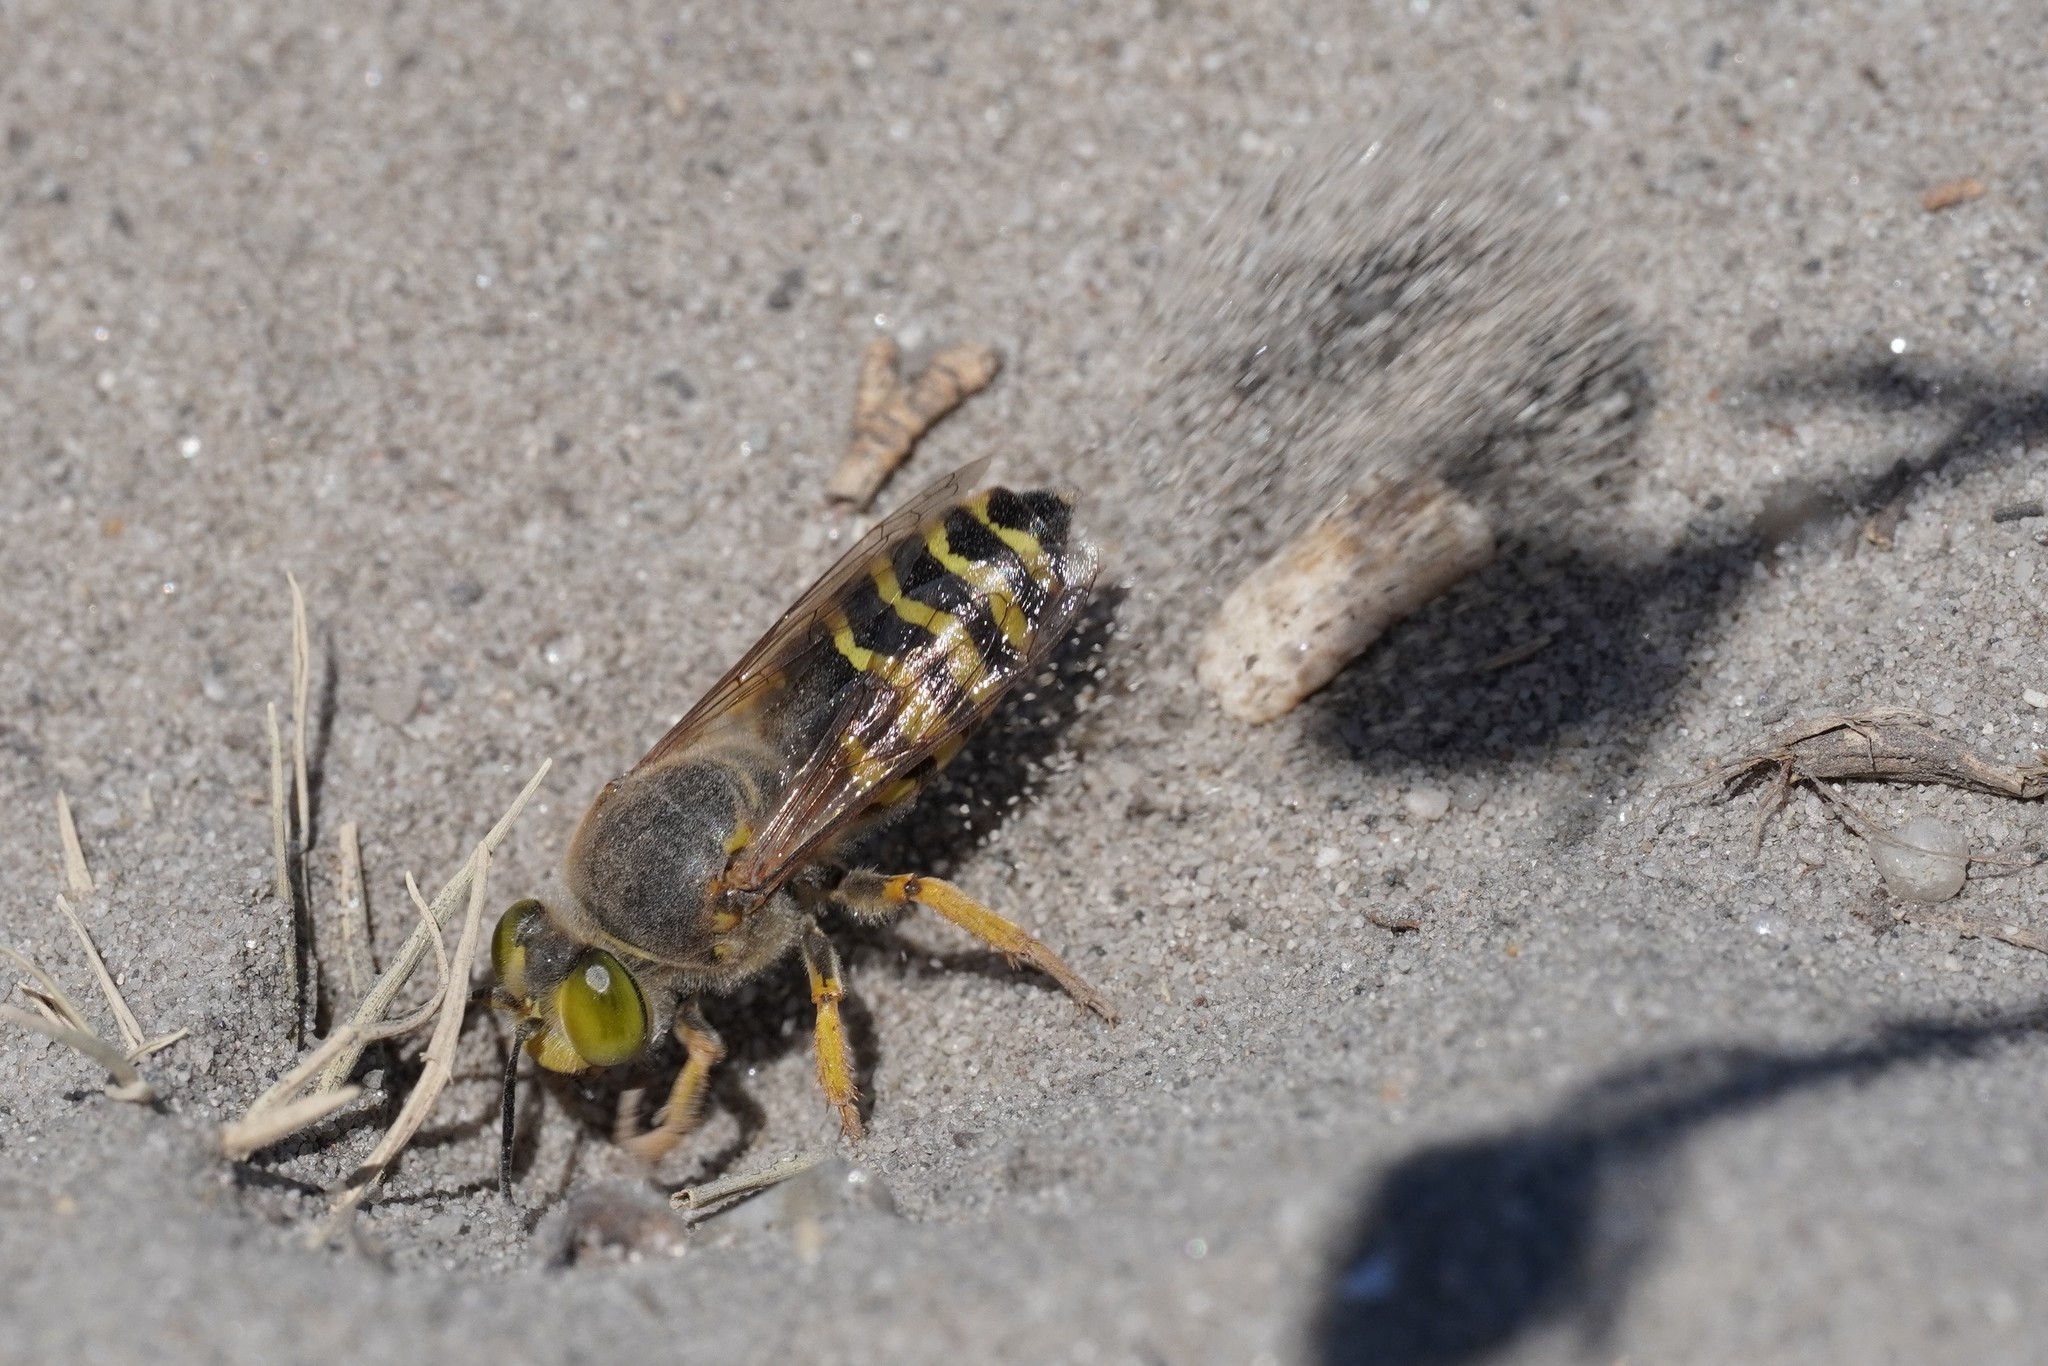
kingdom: Animalia
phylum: Arthropoda
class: Insecta
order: Hymenoptera
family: Crabronidae
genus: Bembix
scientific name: Bembix rostrata
